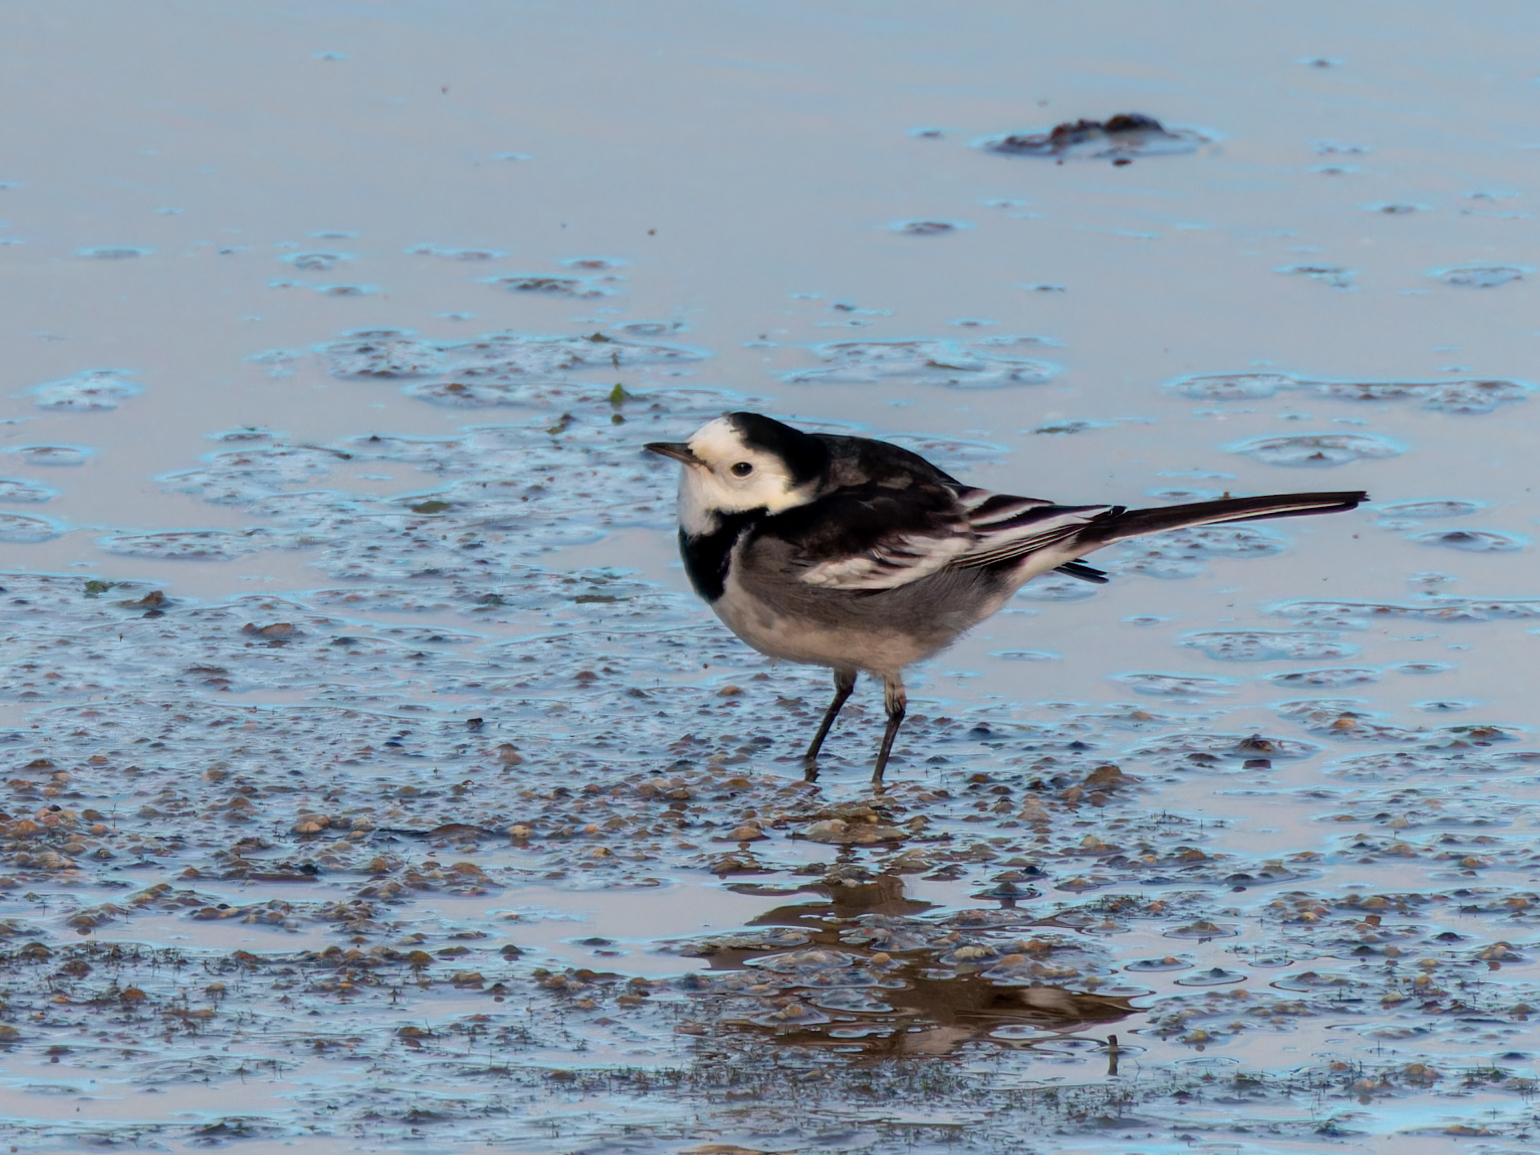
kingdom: Animalia
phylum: Chordata
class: Aves
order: Passeriformes
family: Motacillidae
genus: Motacilla
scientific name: Motacilla alba
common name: White wagtail
